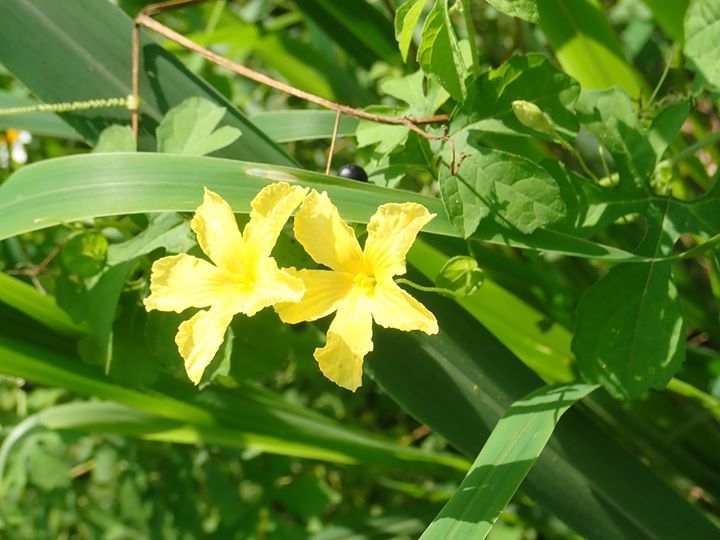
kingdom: Plantae
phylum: Tracheophyta
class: Magnoliopsida
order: Cucurbitales
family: Cucurbitaceae
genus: Momordica
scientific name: Momordica charantia
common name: Balsampear
